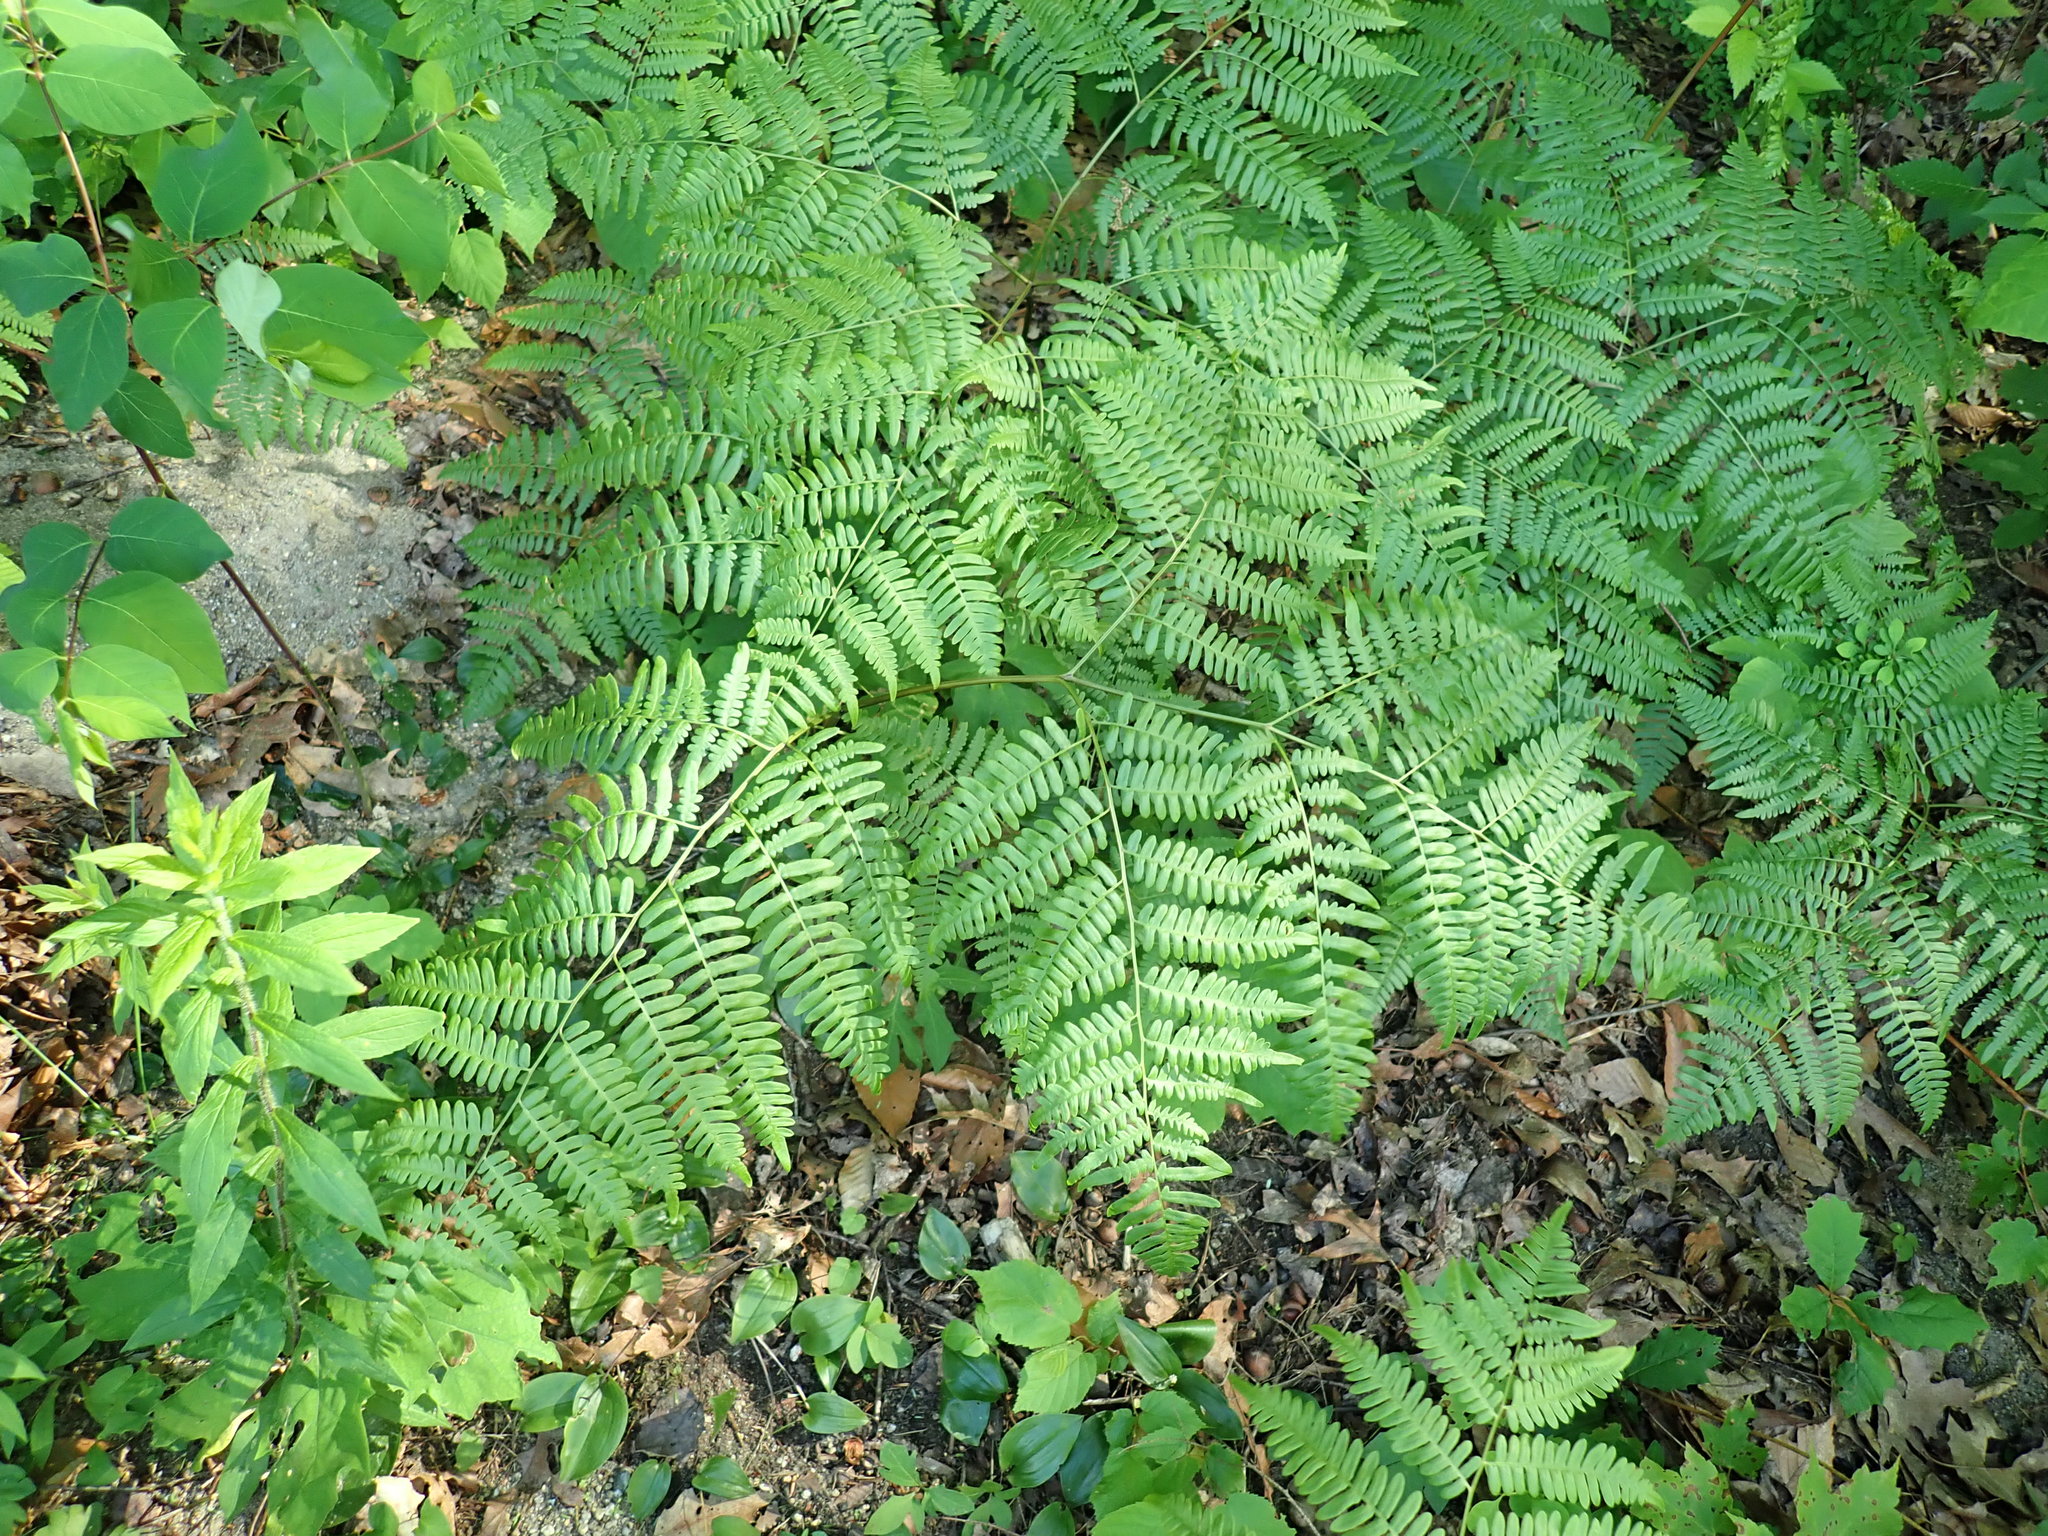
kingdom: Plantae
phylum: Tracheophyta
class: Polypodiopsida
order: Polypodiales
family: Dennstaedtiaceae
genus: Pteridium
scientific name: Pteridium aquilinum
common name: Bracken
